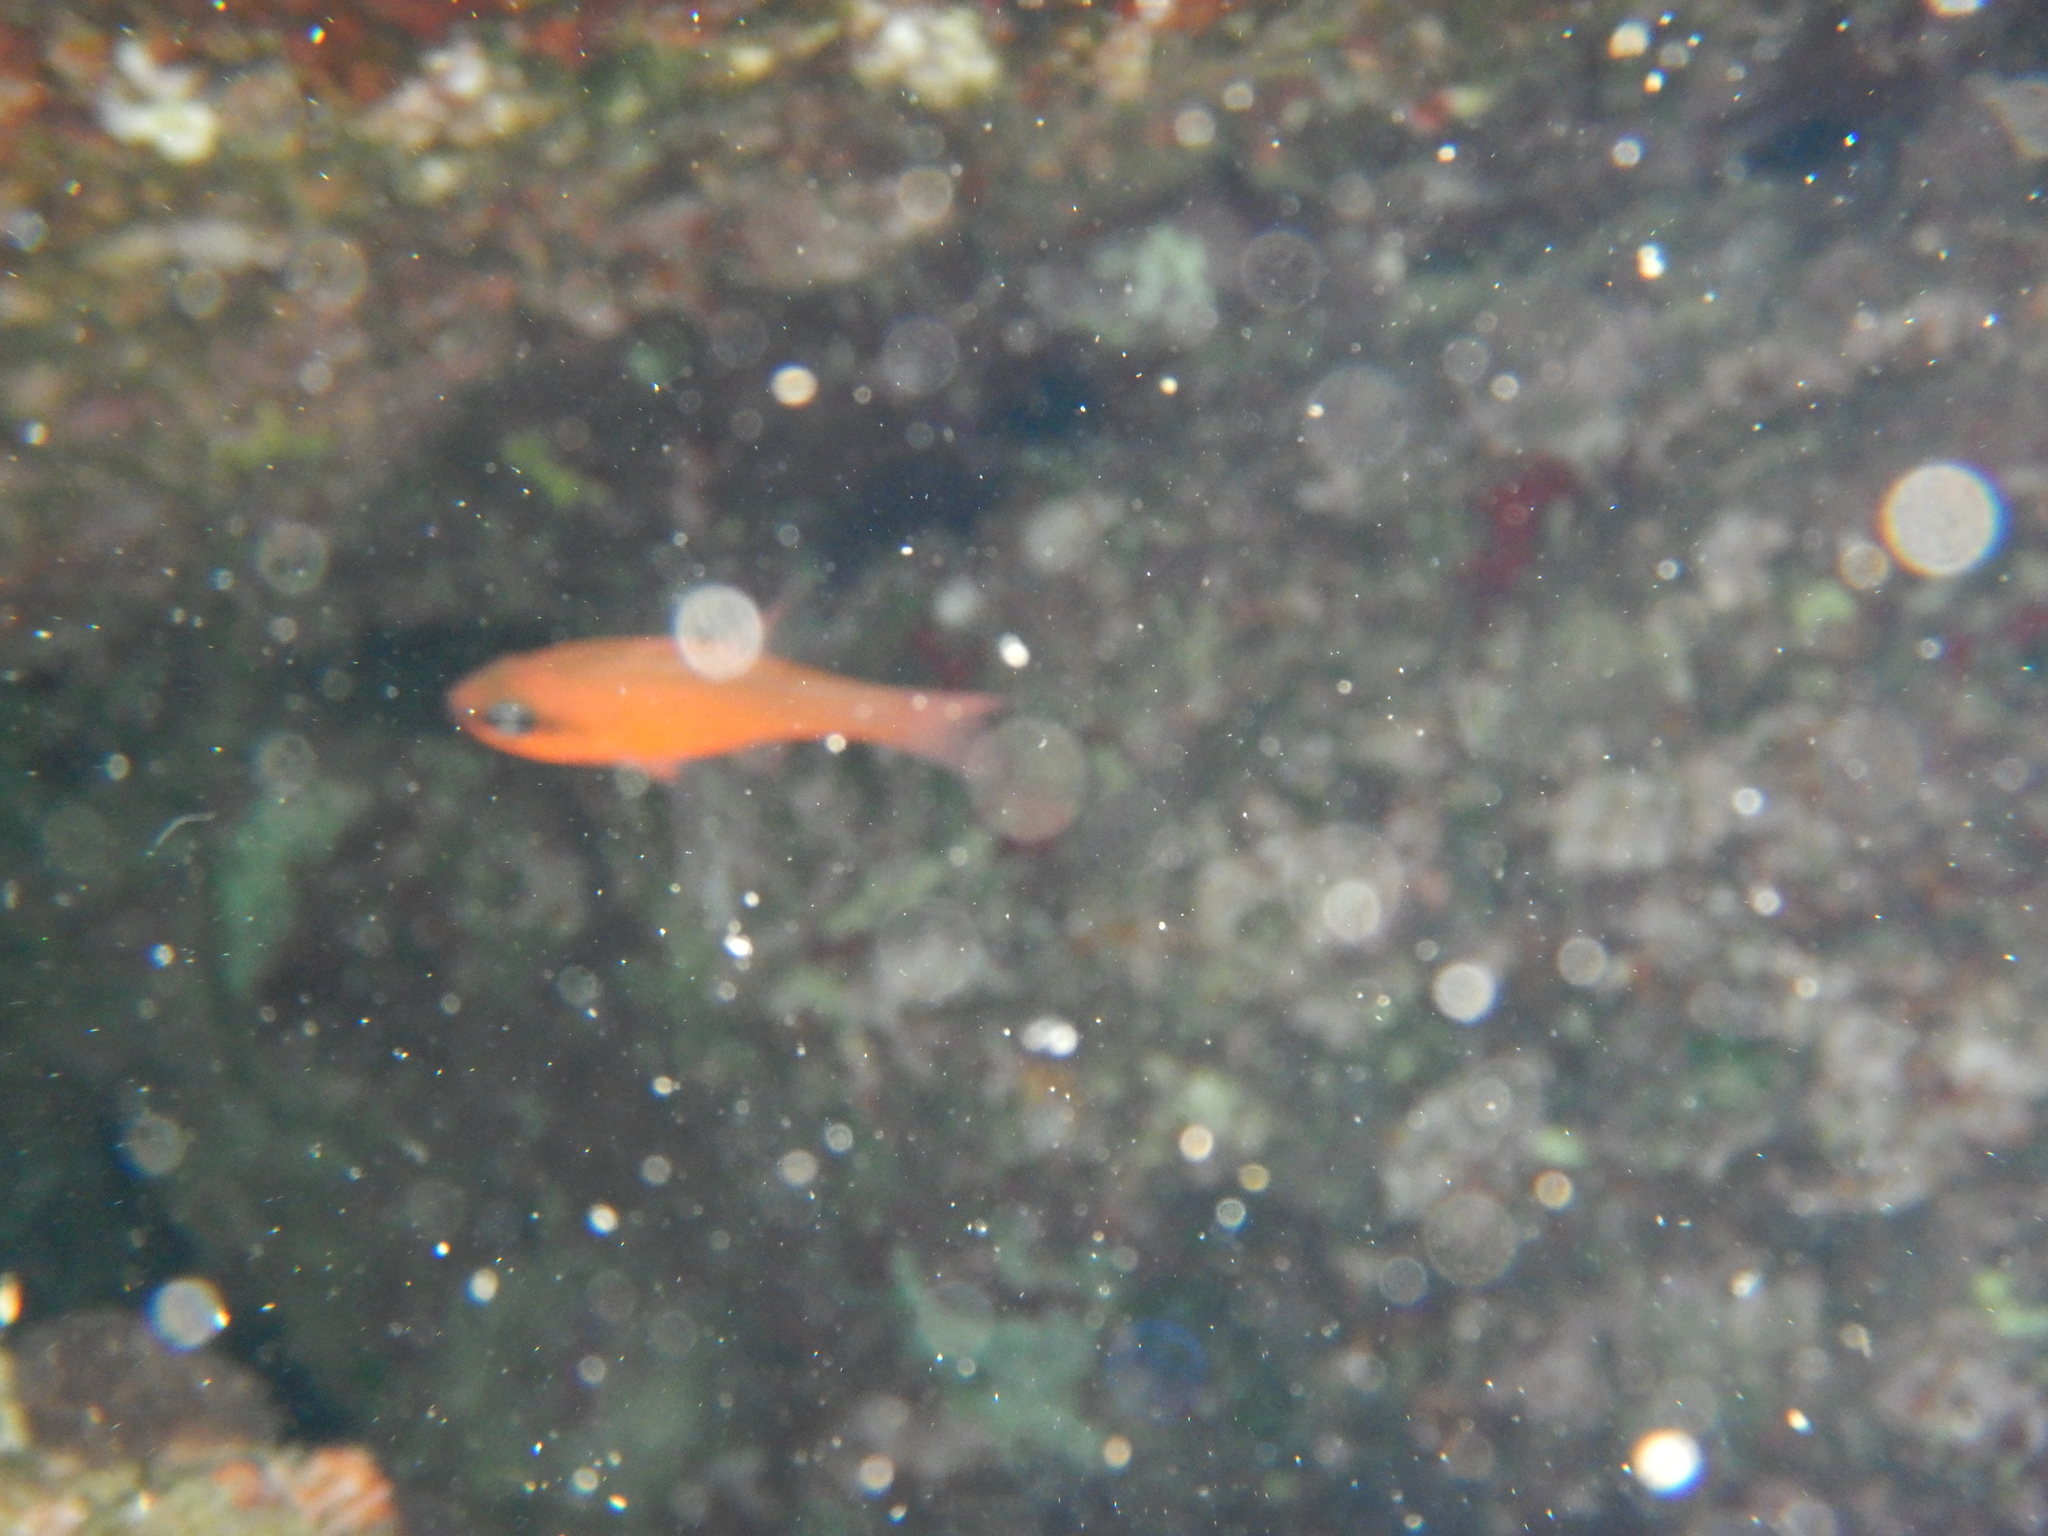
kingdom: Animalia
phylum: Chordata
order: Perciformes
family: Apogonidae
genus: Apogon
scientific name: Apogon imberbis
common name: Cardinal fish
